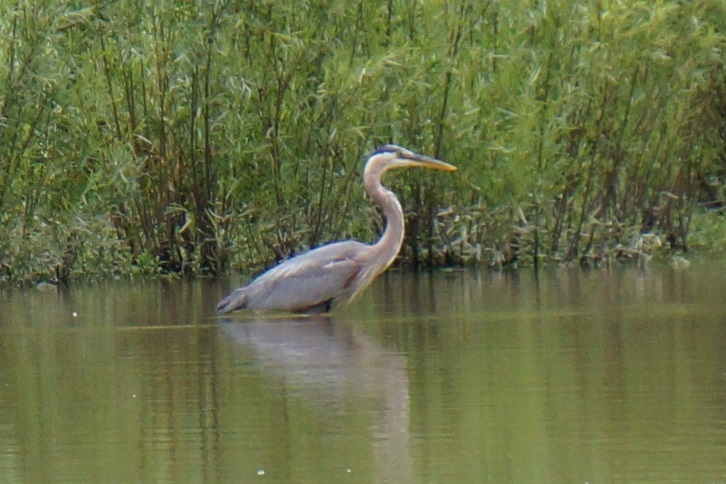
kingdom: Animalia
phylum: Chordata
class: Aves
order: Pelecaniformes
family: Ardeidae
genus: Ardea
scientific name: Ardea herodias
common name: Great blue heron
